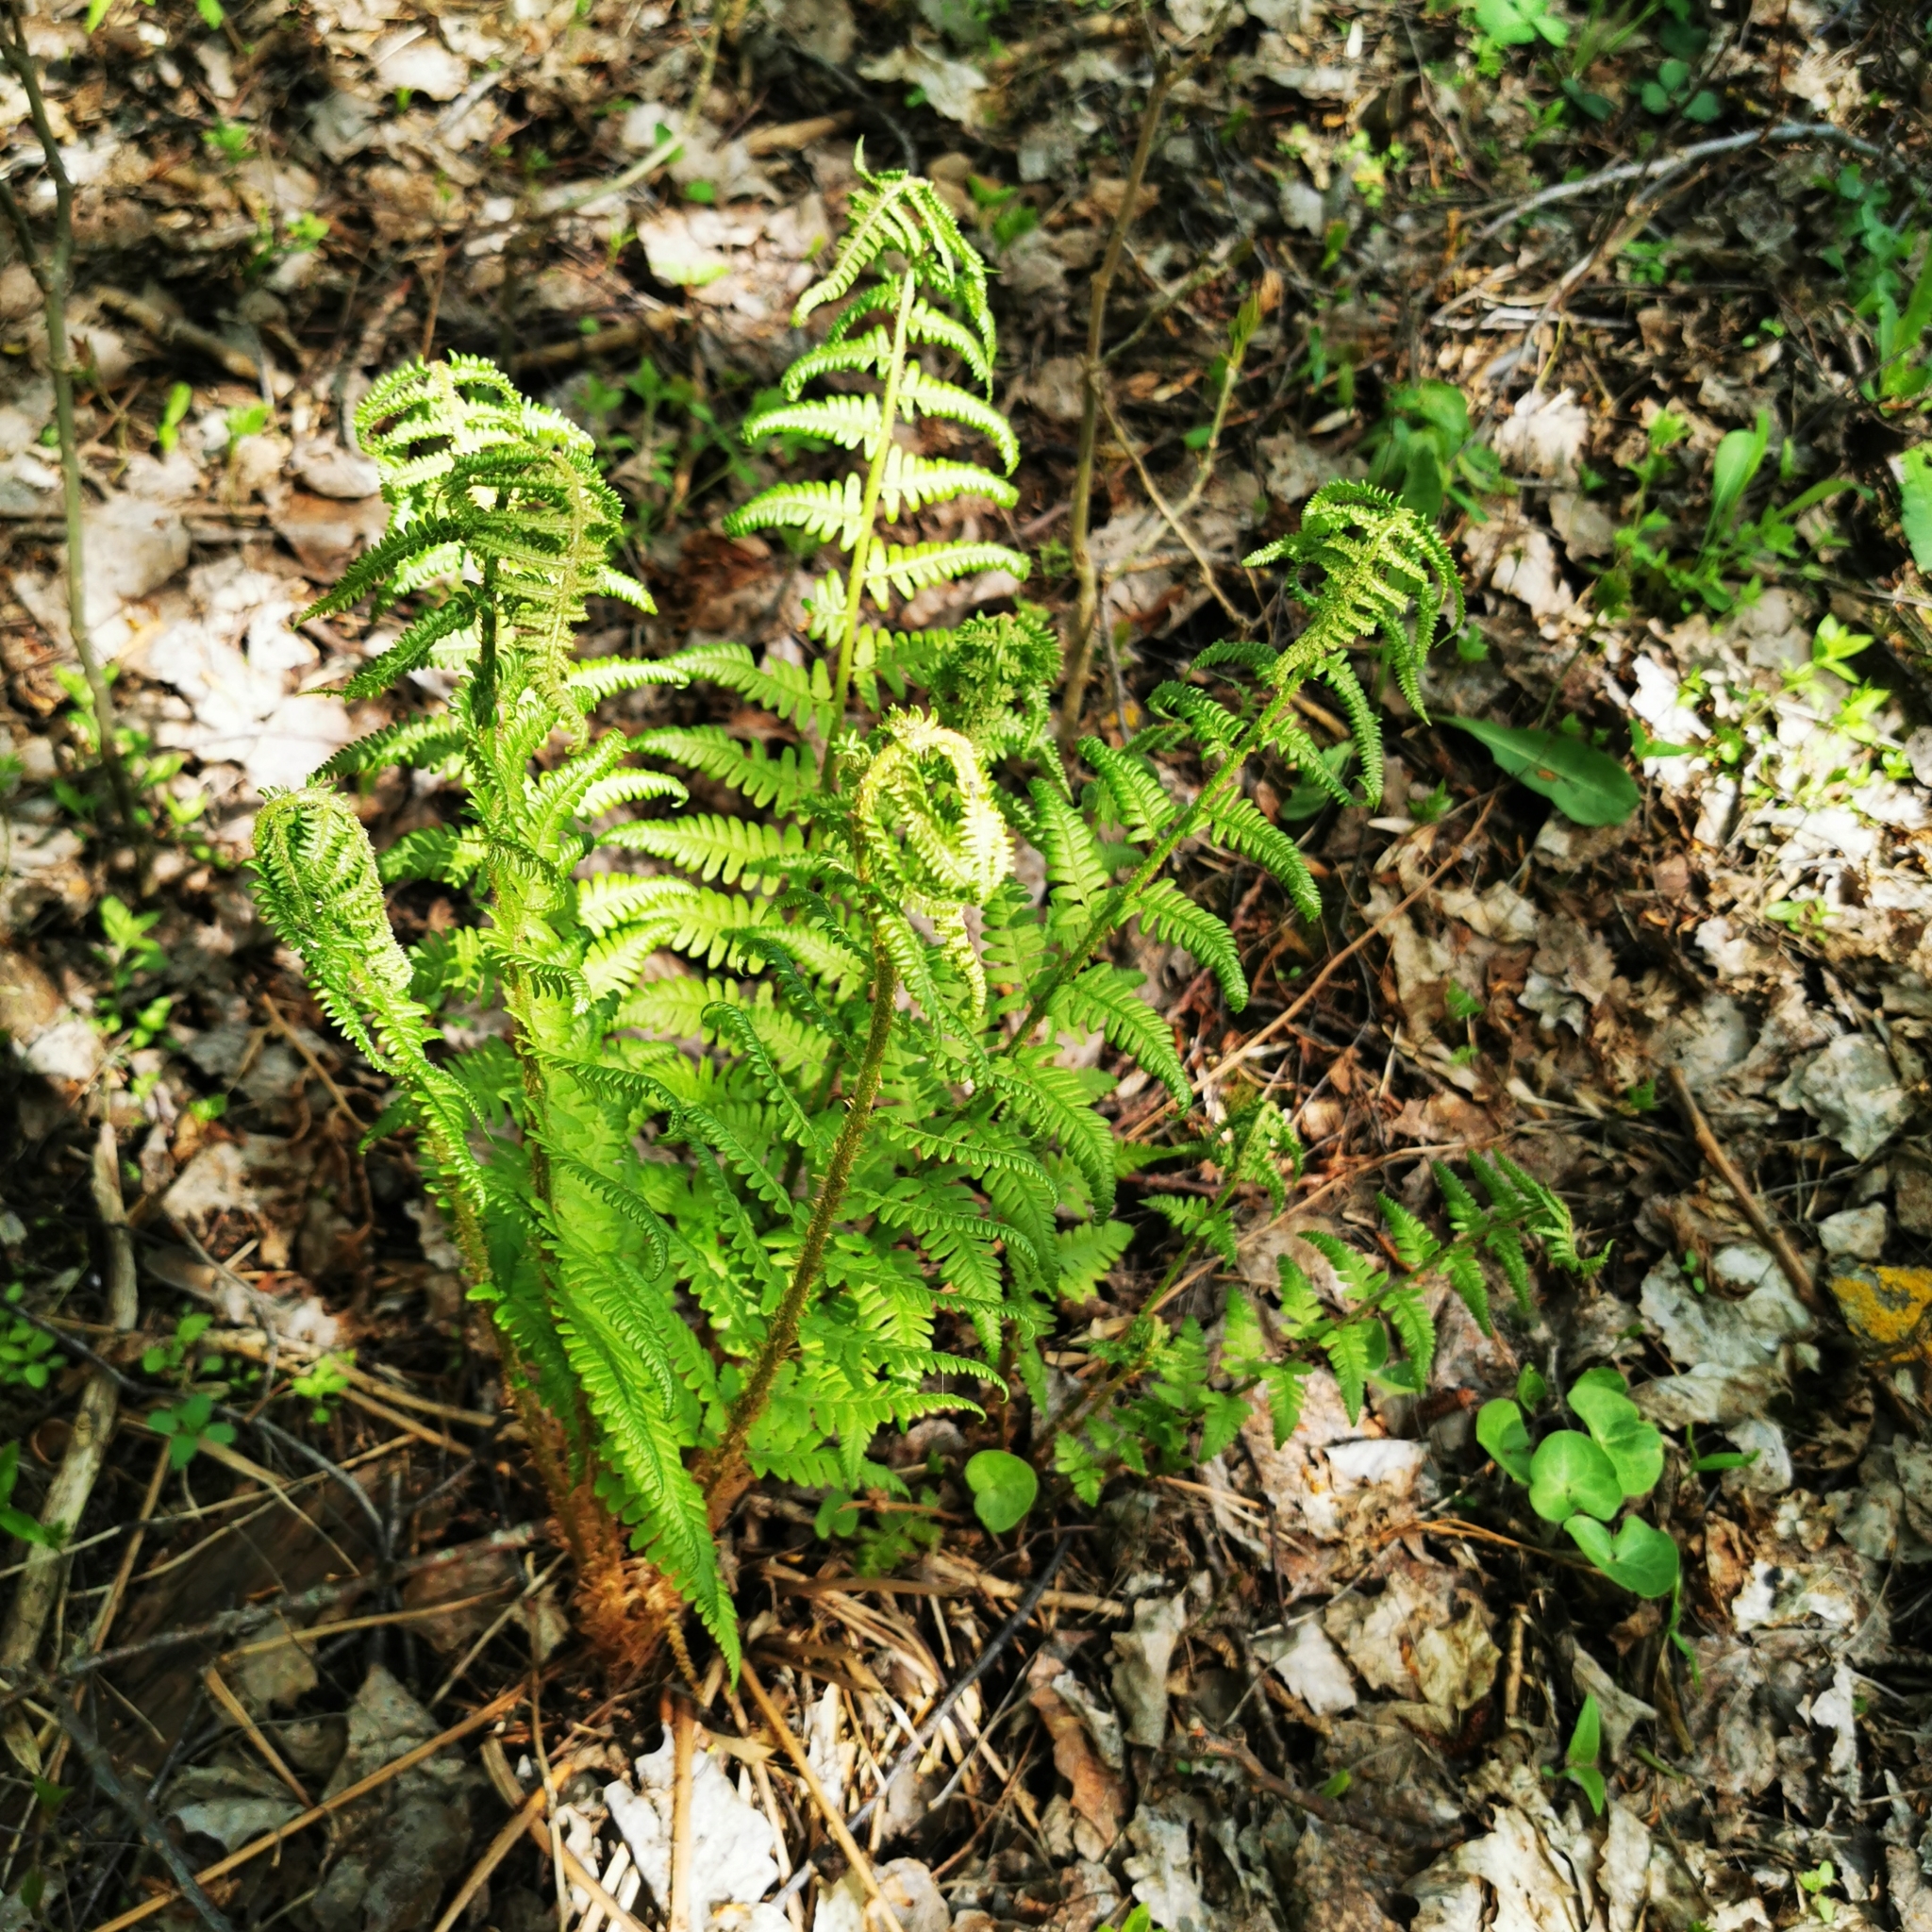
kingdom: Plantae
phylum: Tracheophyta
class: Polypodiopsida
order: Polypodiales
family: Dryopteridaceae
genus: Dryopteris
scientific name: Dryopteris filix-mas
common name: Male fern
